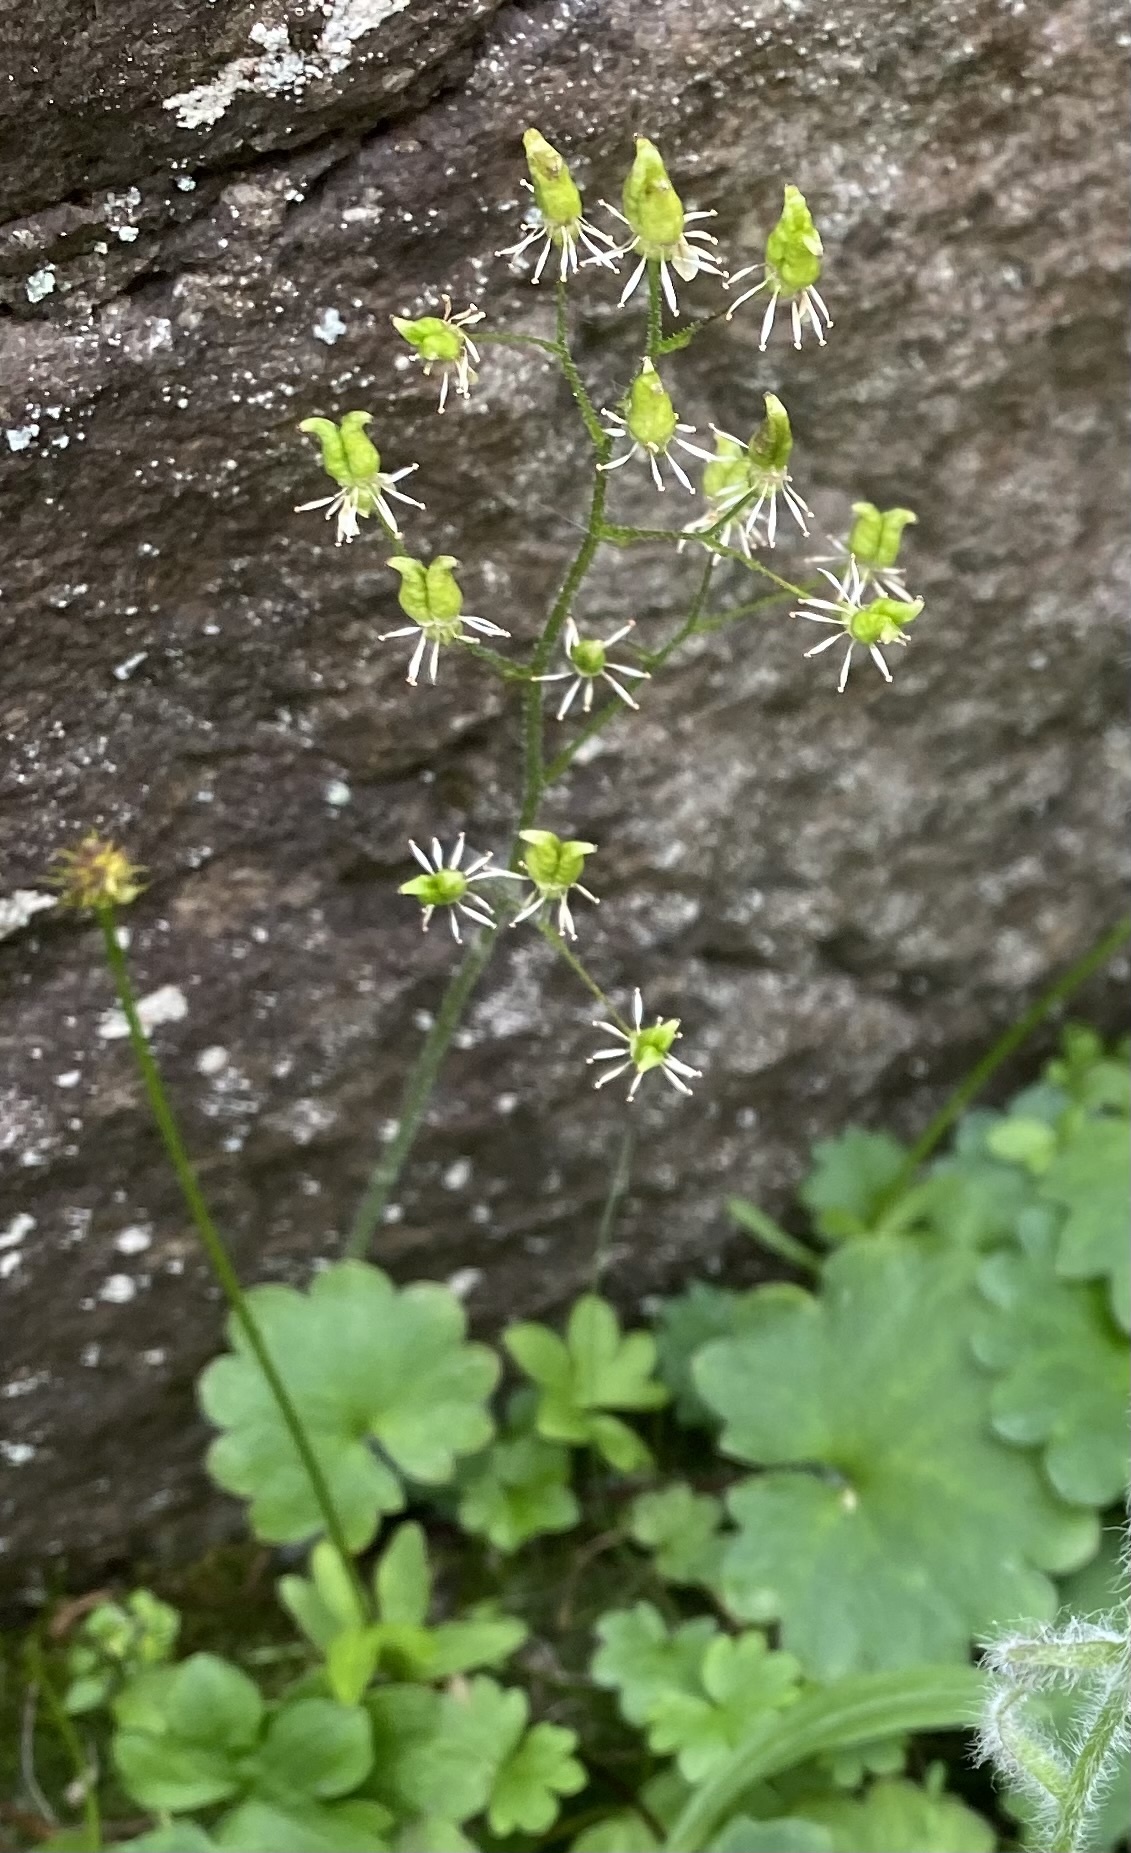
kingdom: Plantae
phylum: Tracheophyta
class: Magnoliopsida
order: Saxifragales
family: Saxifragaceae
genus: Micranthes
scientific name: Micranthes nelsoniana
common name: Nelson's saxifrage
